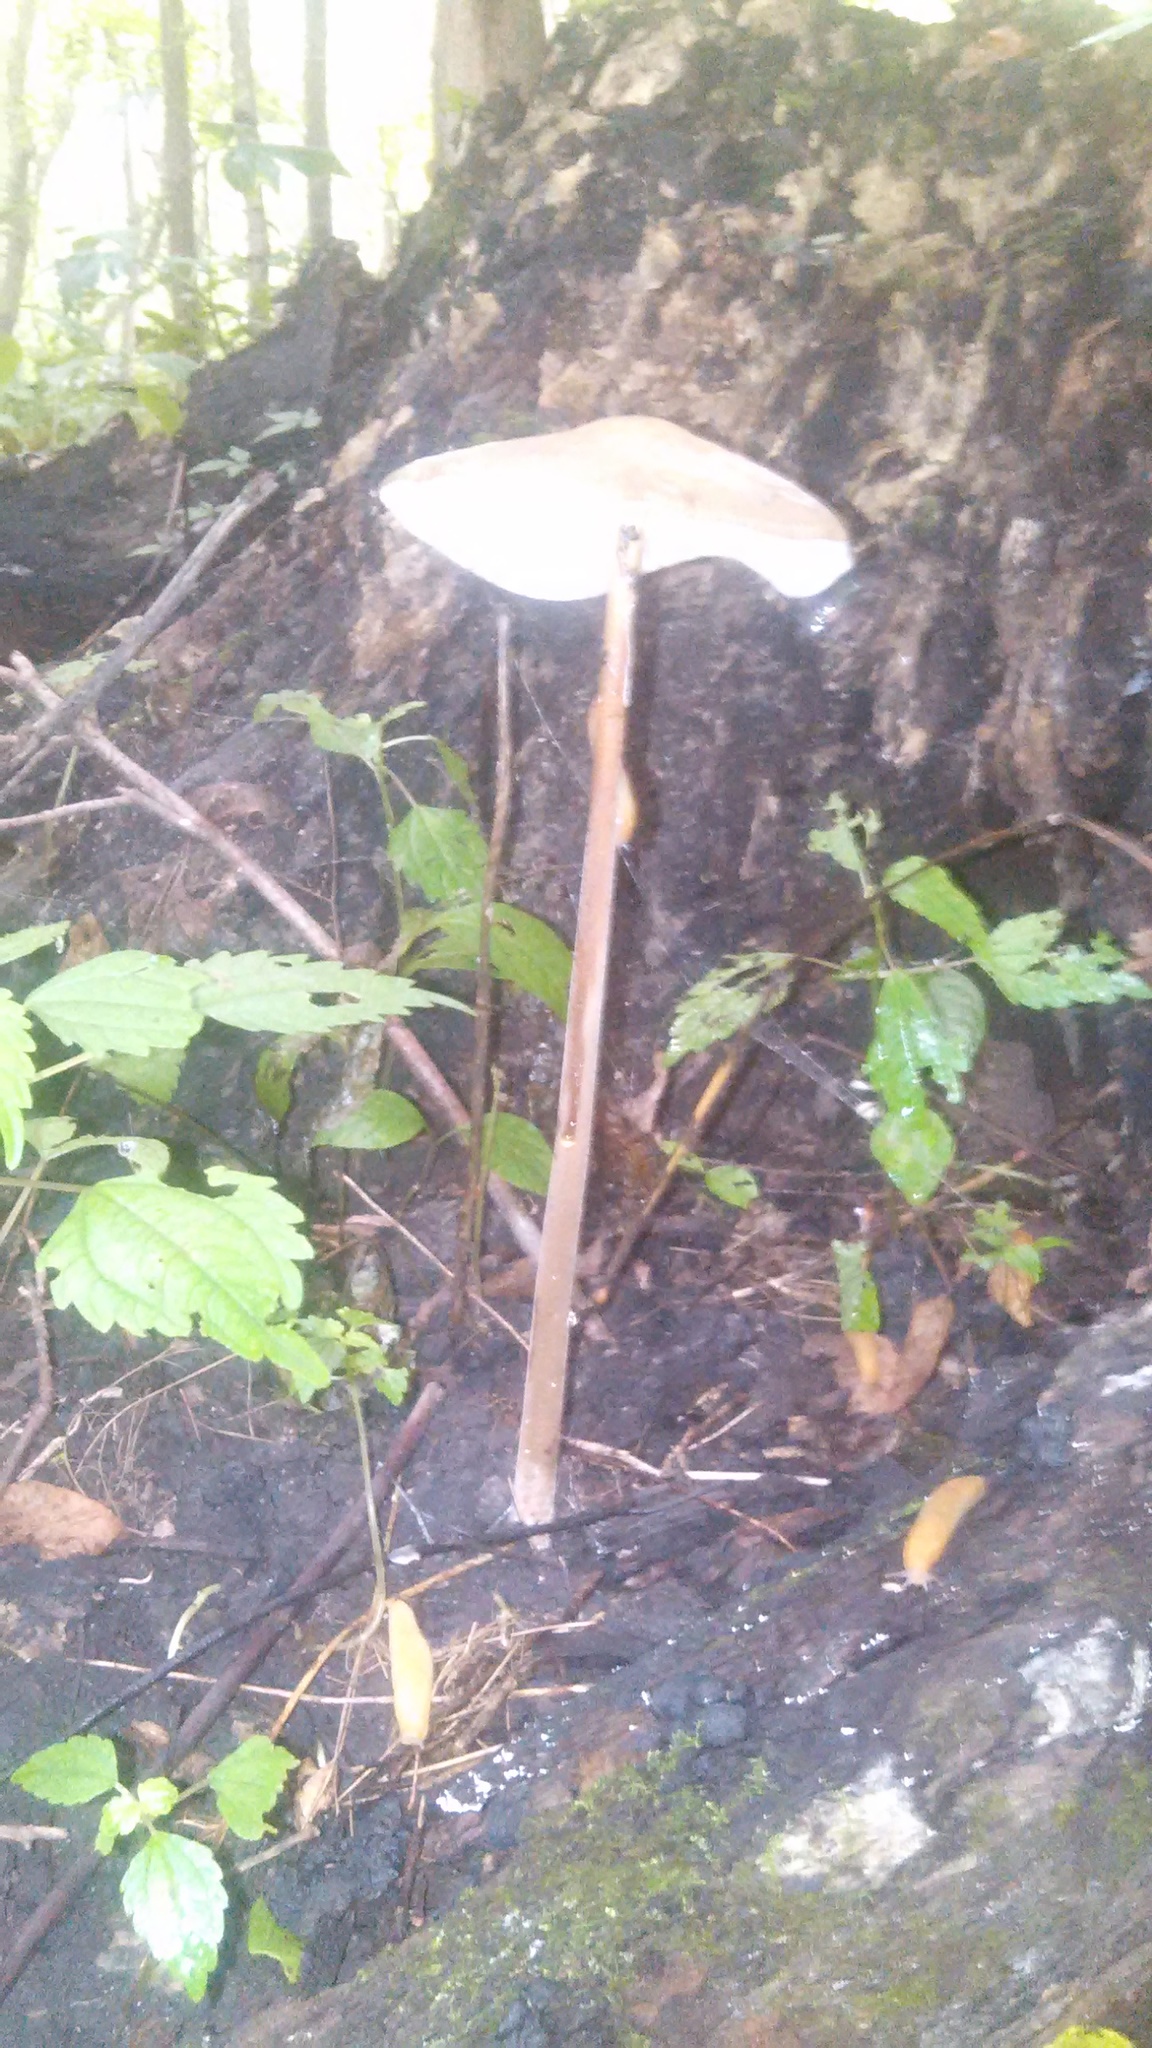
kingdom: Fungi
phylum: Basidiomycota
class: Agaricomycetes
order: Agaricales
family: Physalacriaceae
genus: Hymenopellis
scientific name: Hymenopellis radicata
